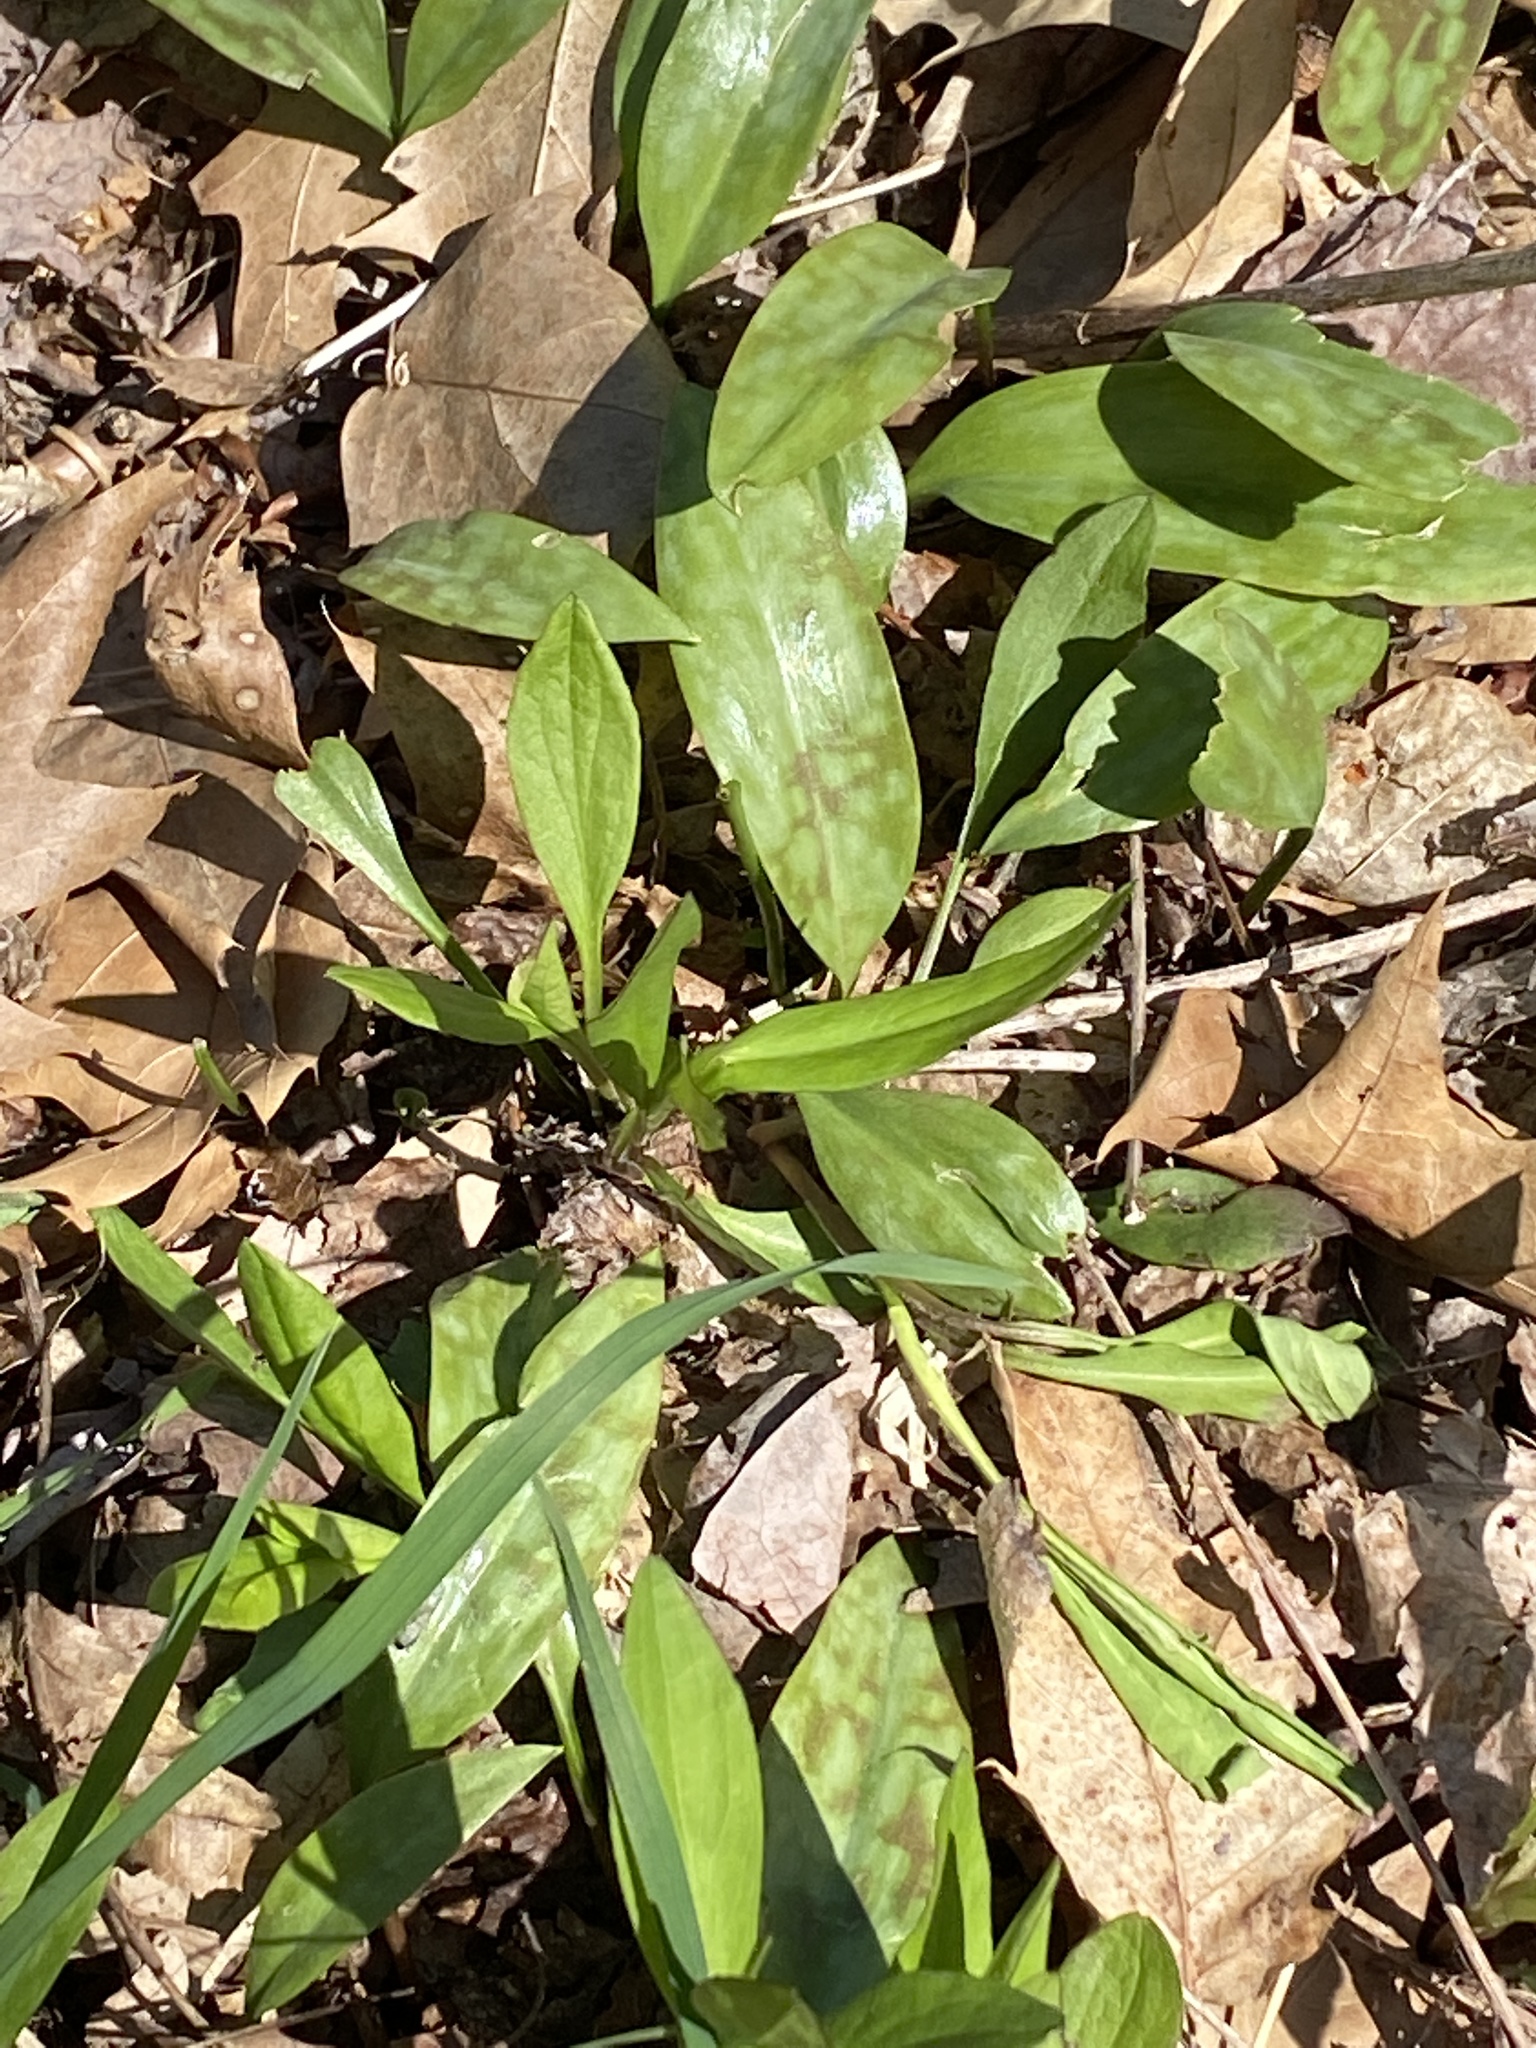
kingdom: Plantae
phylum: Tracheophyta
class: Liliopsida
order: Liliales
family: Liliaceae
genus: Erythronium
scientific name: Erythronium americanum
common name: Yellow adder's-tongue
